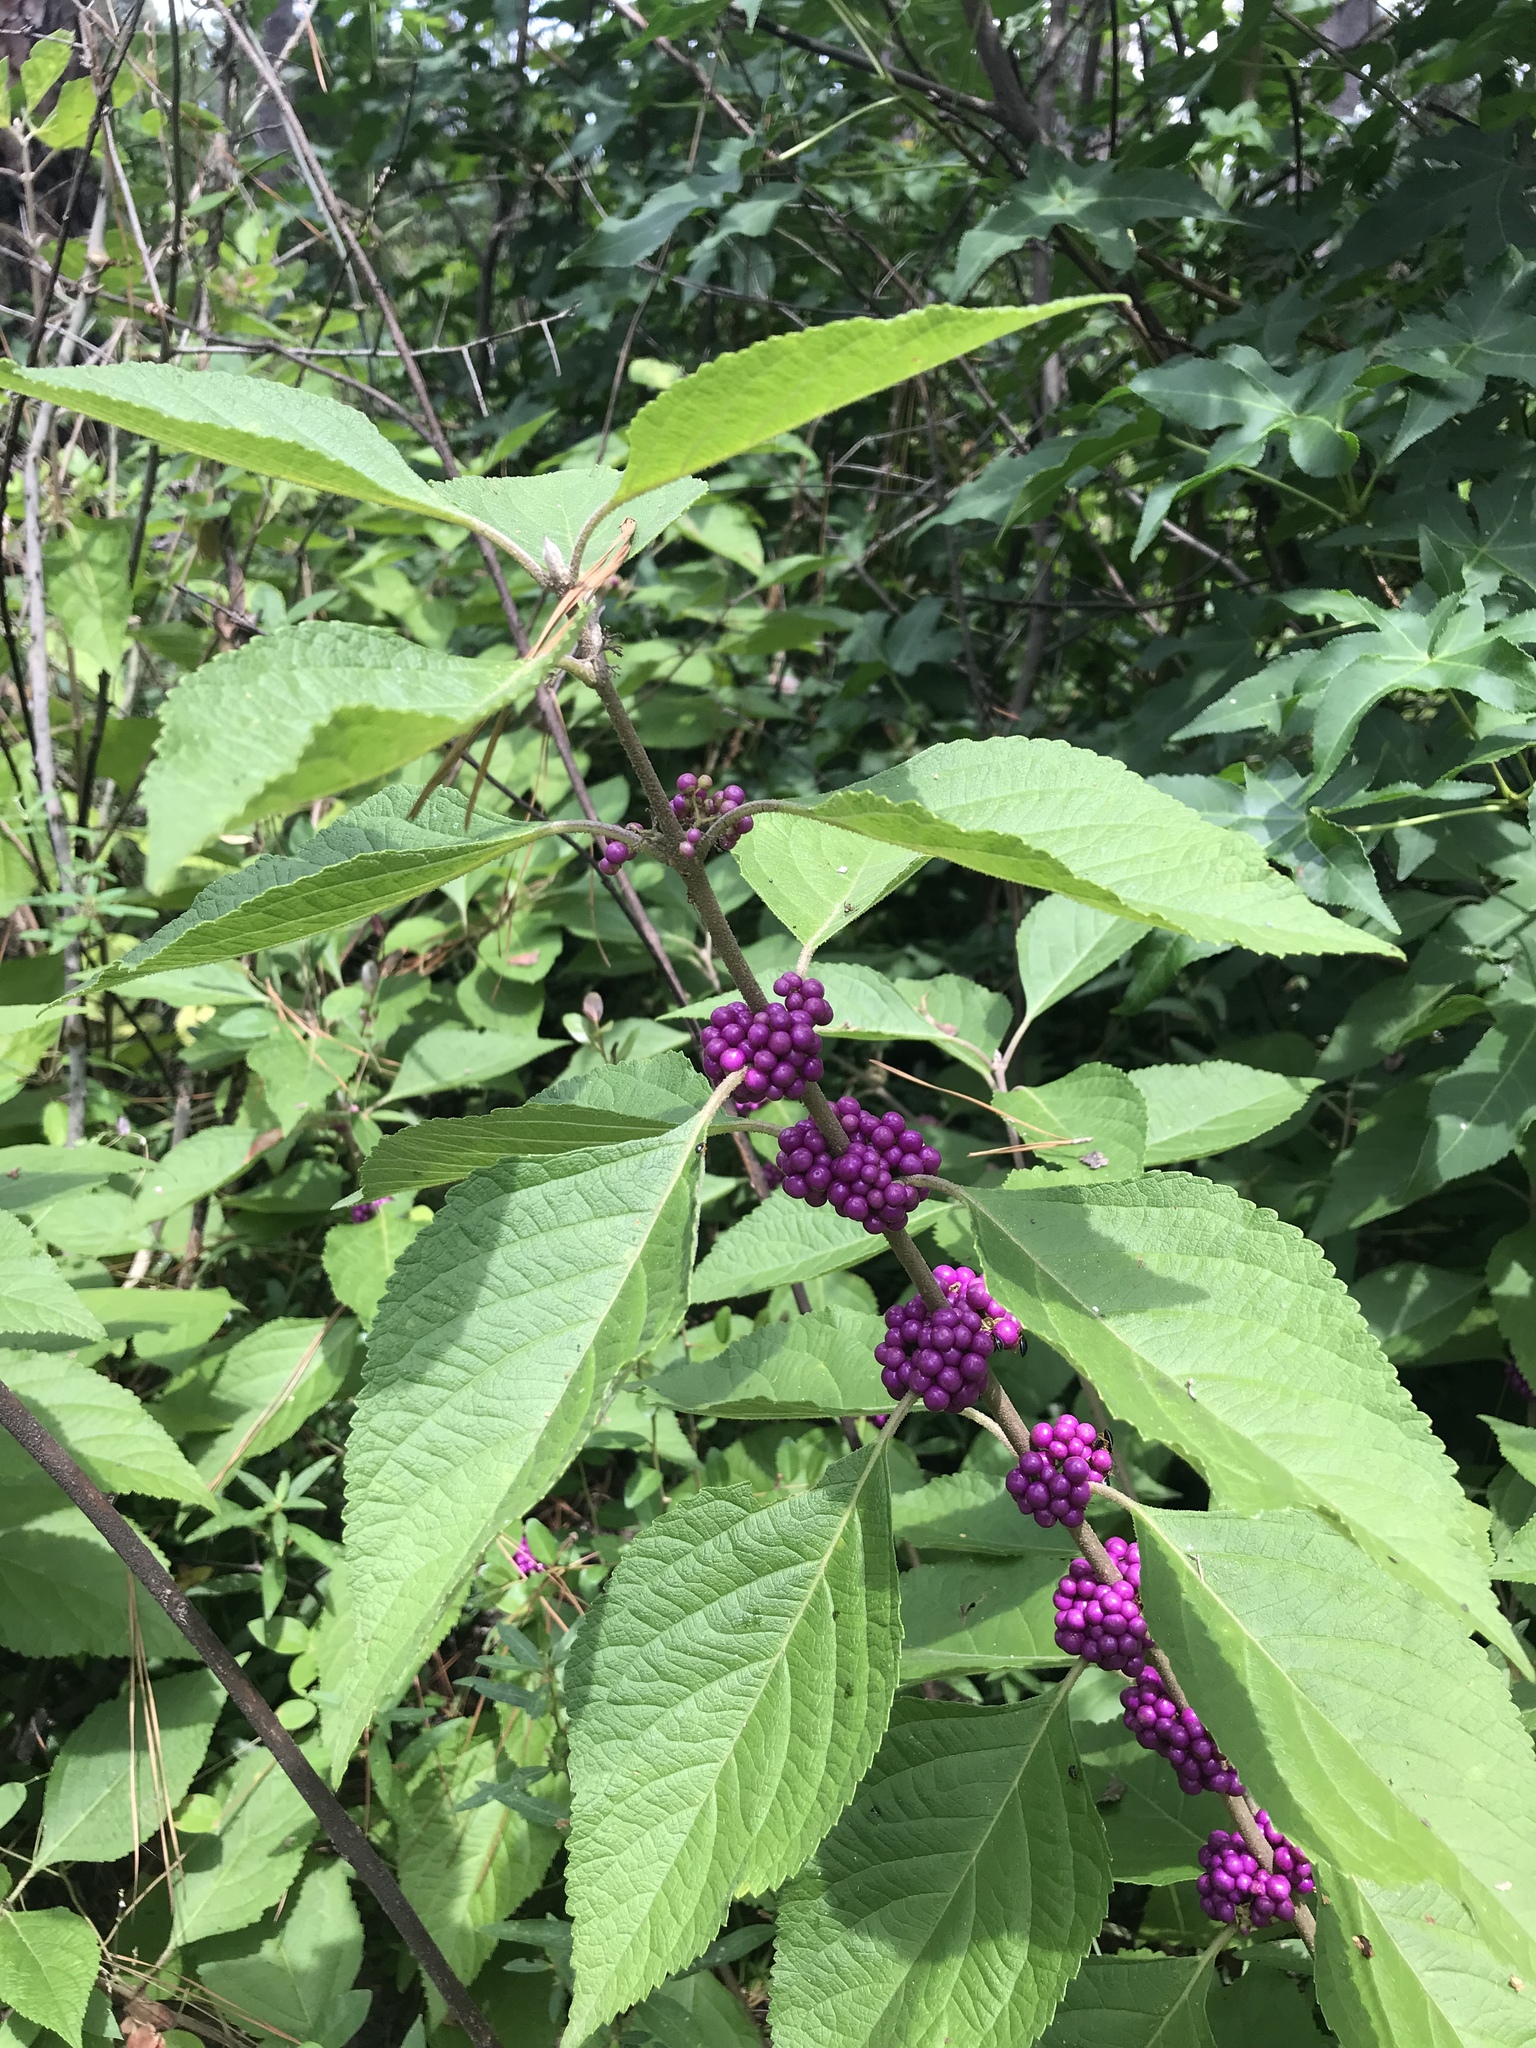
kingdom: Plantae
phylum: Tracheophyta
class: Magnoliopsida
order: Lamiales
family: Lamiaceae
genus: Callicarpa
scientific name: Callicarpa americana
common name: American beautyberry
